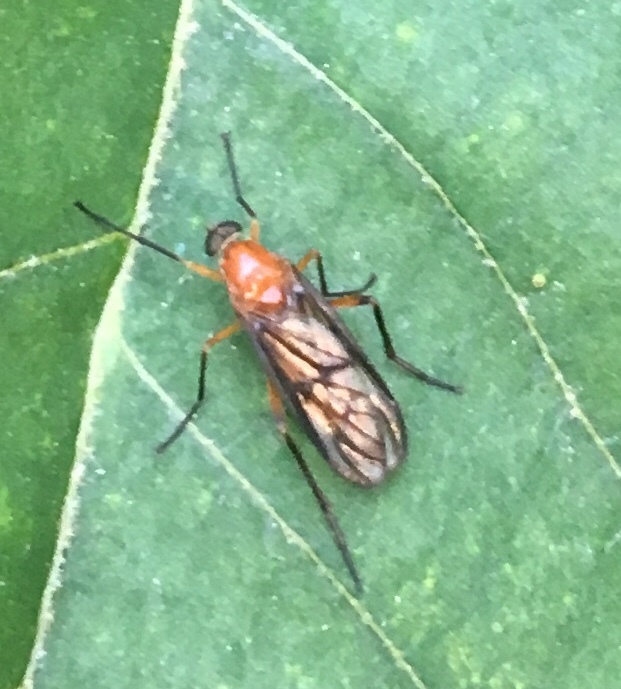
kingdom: Animalia
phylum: Arthropoda
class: Insecta
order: Diptera
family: Xylophagidae
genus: Dialysis
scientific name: Dialysis rufithorax
